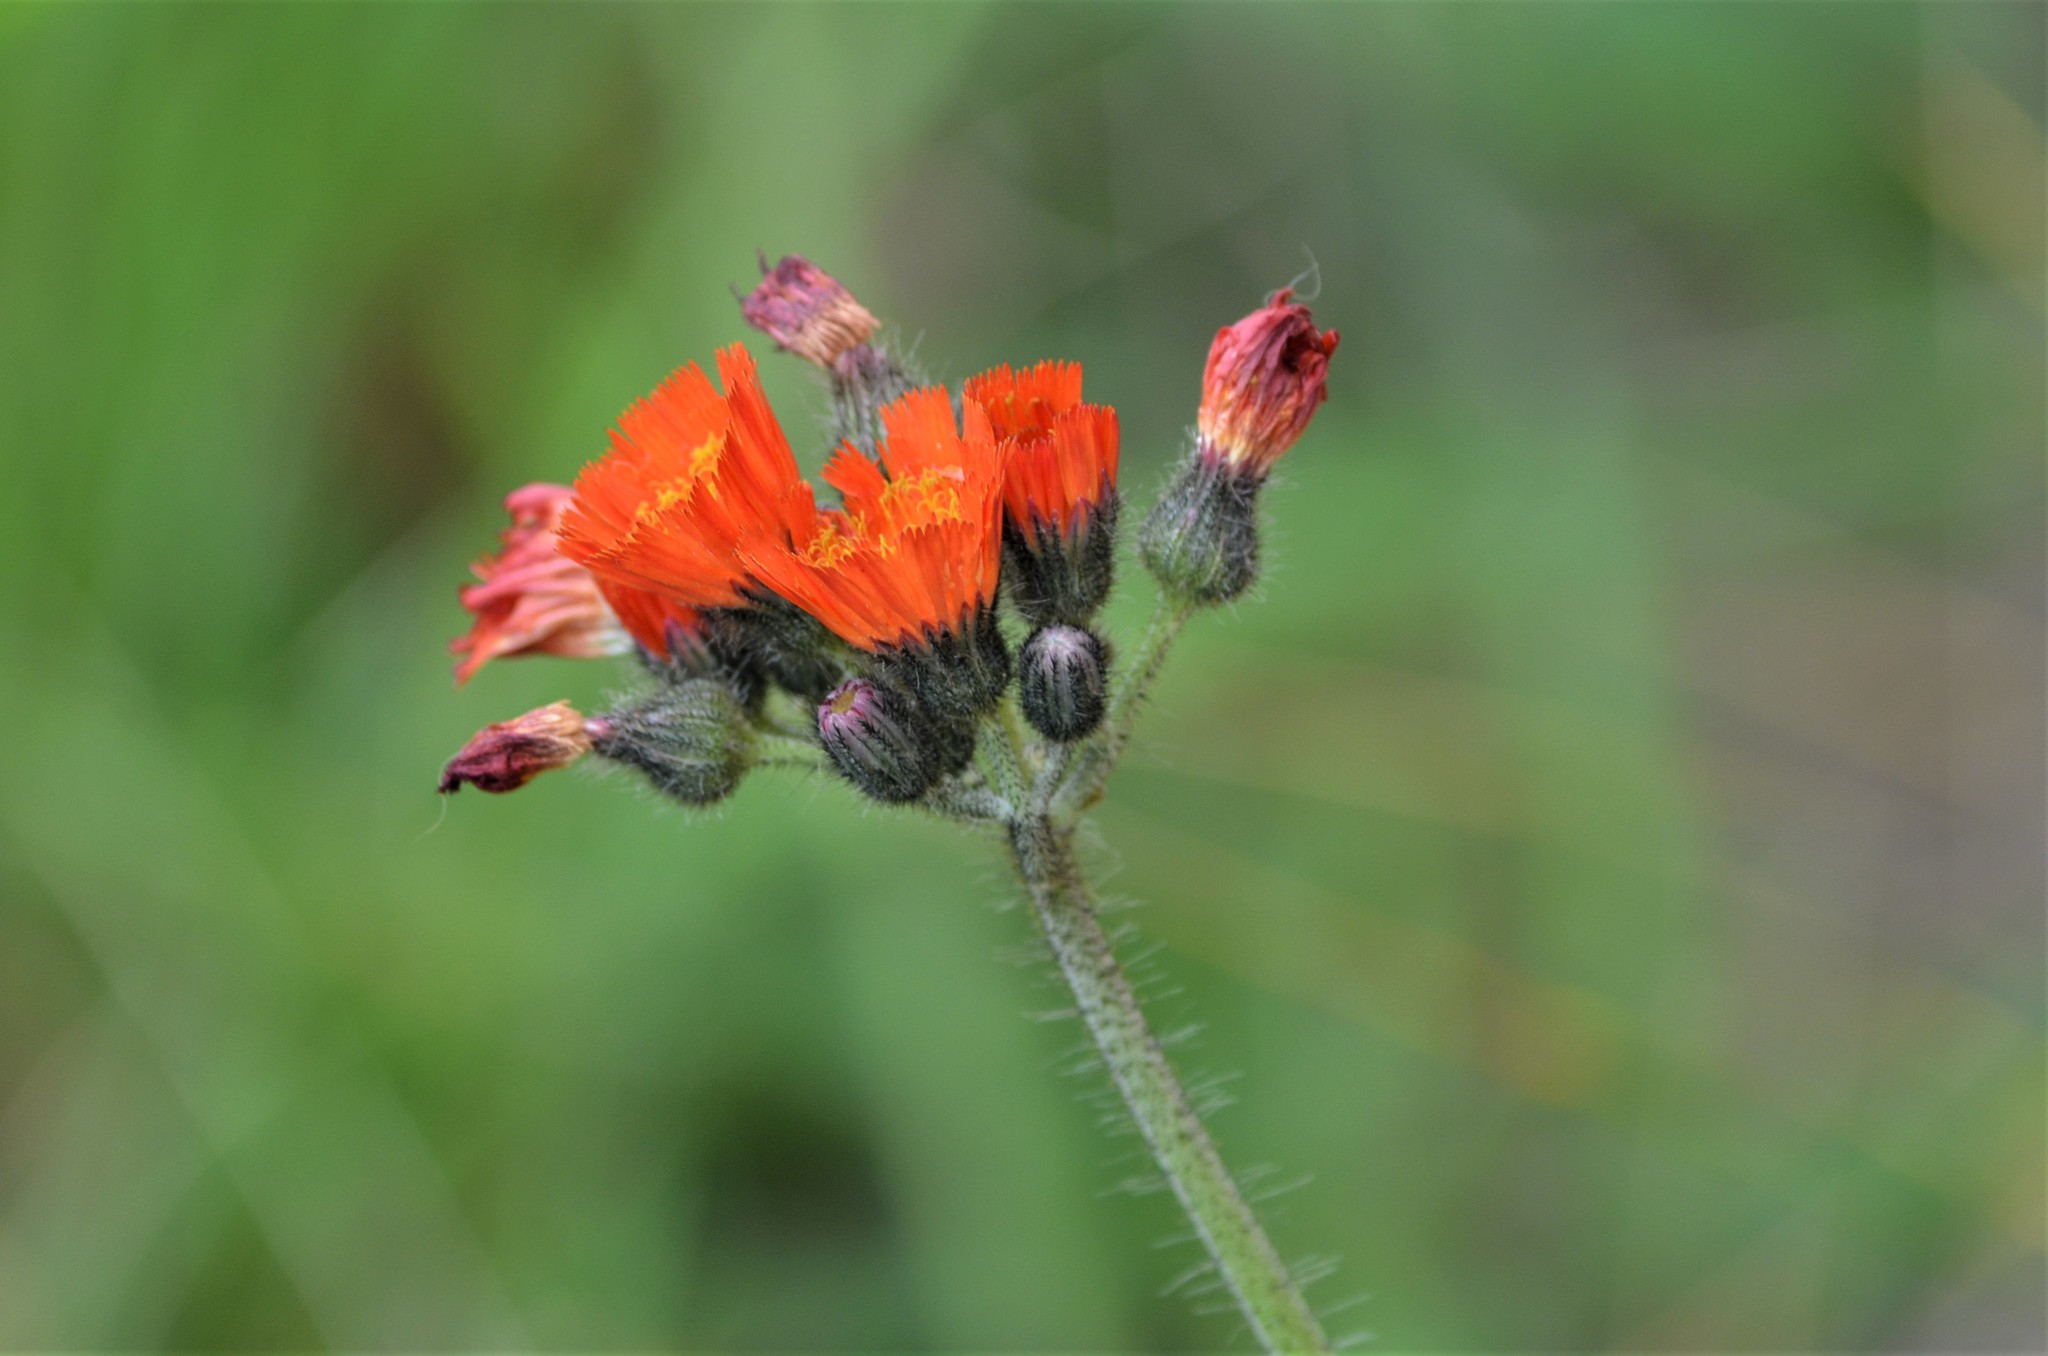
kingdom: Plantae
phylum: Tracheophyta
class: Magnoliopsida
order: Asterales
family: Asteraceae
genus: Pilosella
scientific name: Pilosella aurantiaca
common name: Fox-and-cubs
